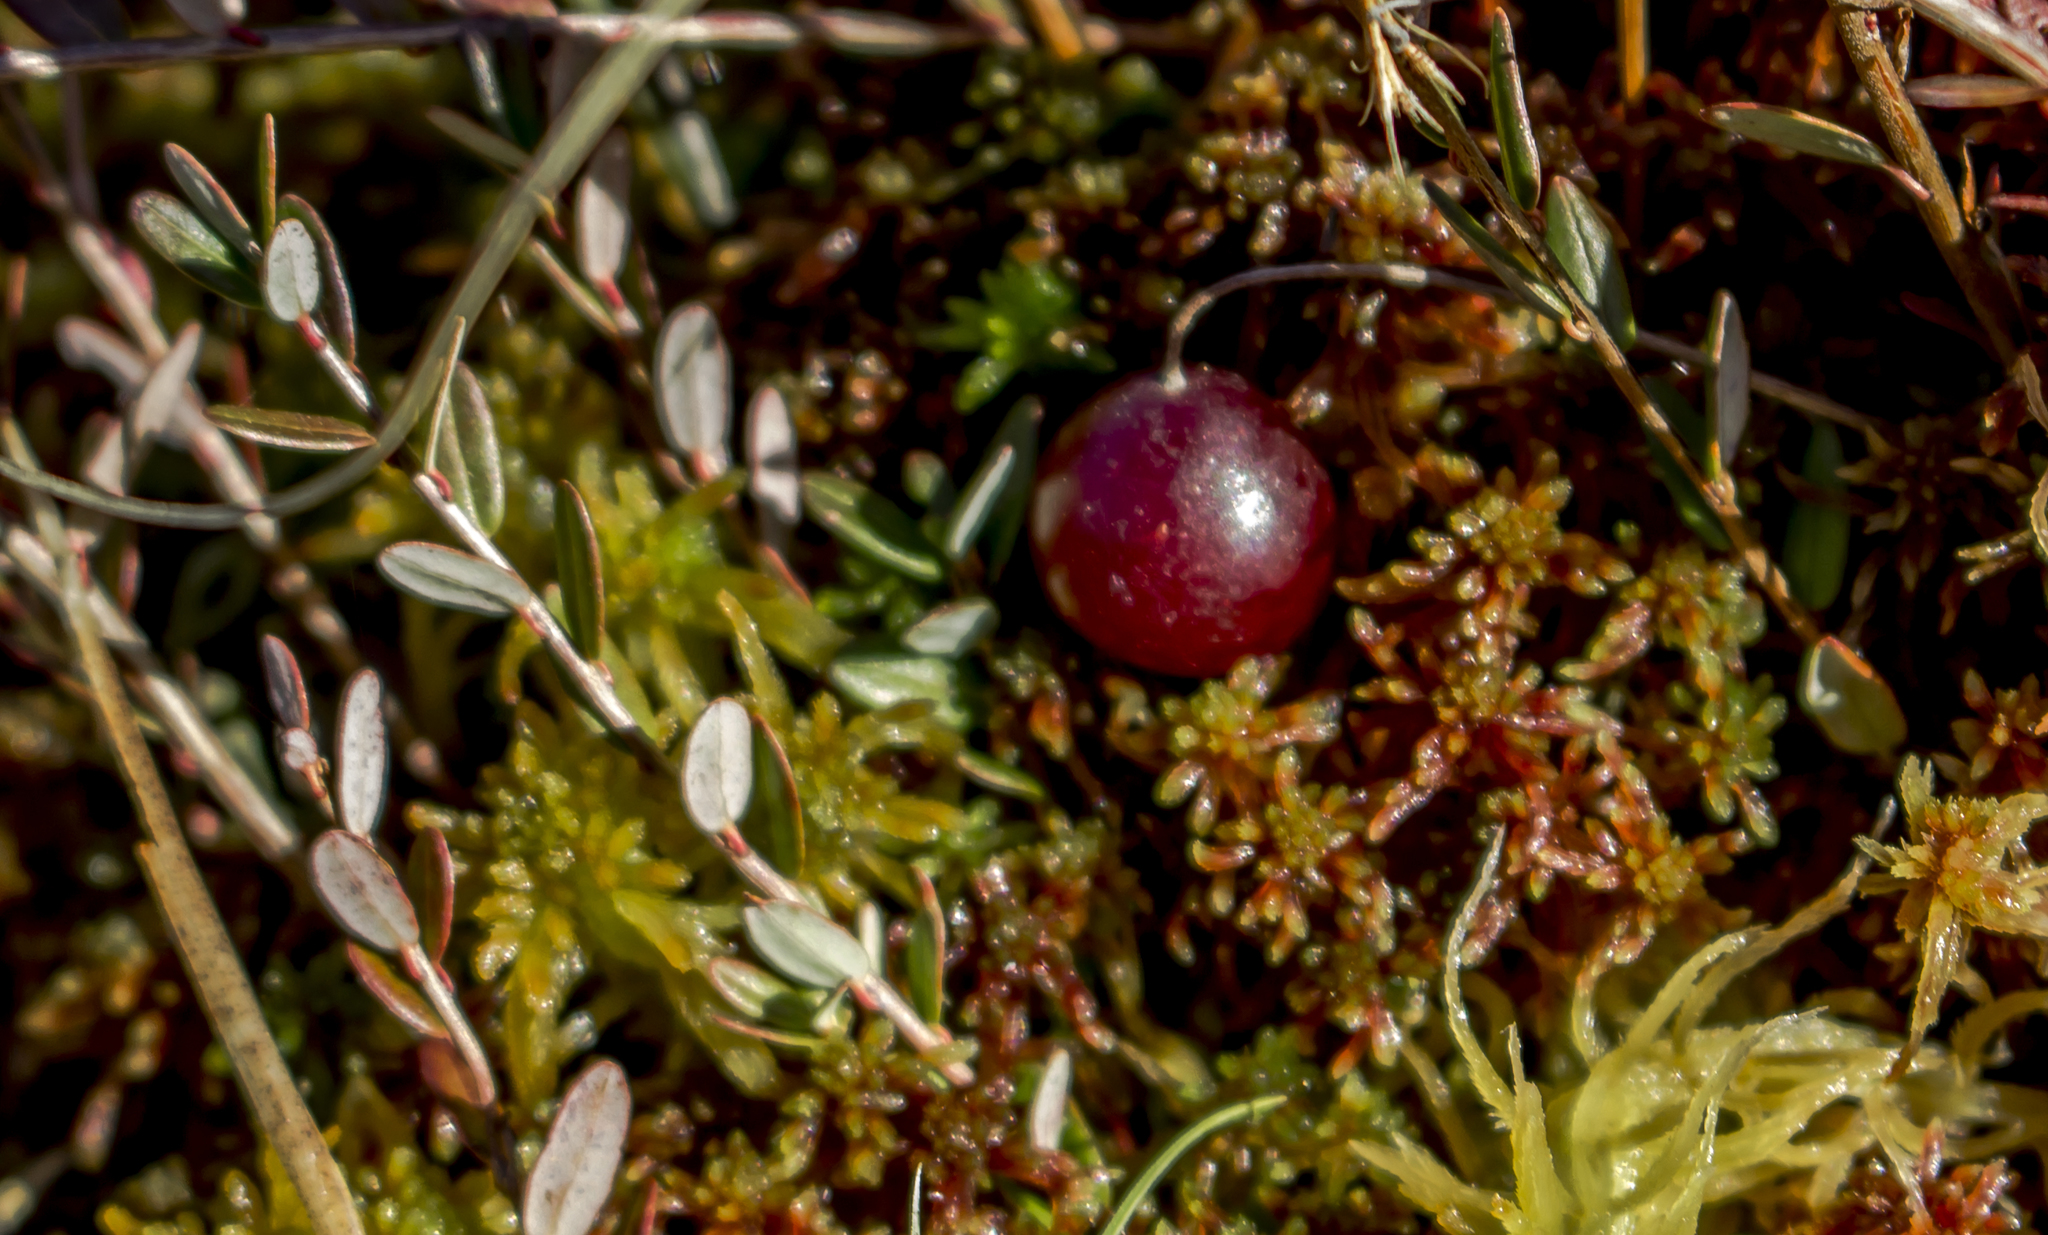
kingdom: Plantae
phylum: Tracheophyta
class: Magnoliopsida
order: Ericales
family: Ericaceae
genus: Vaccinium
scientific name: Vaccinium oxycoccos
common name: Cranberry
